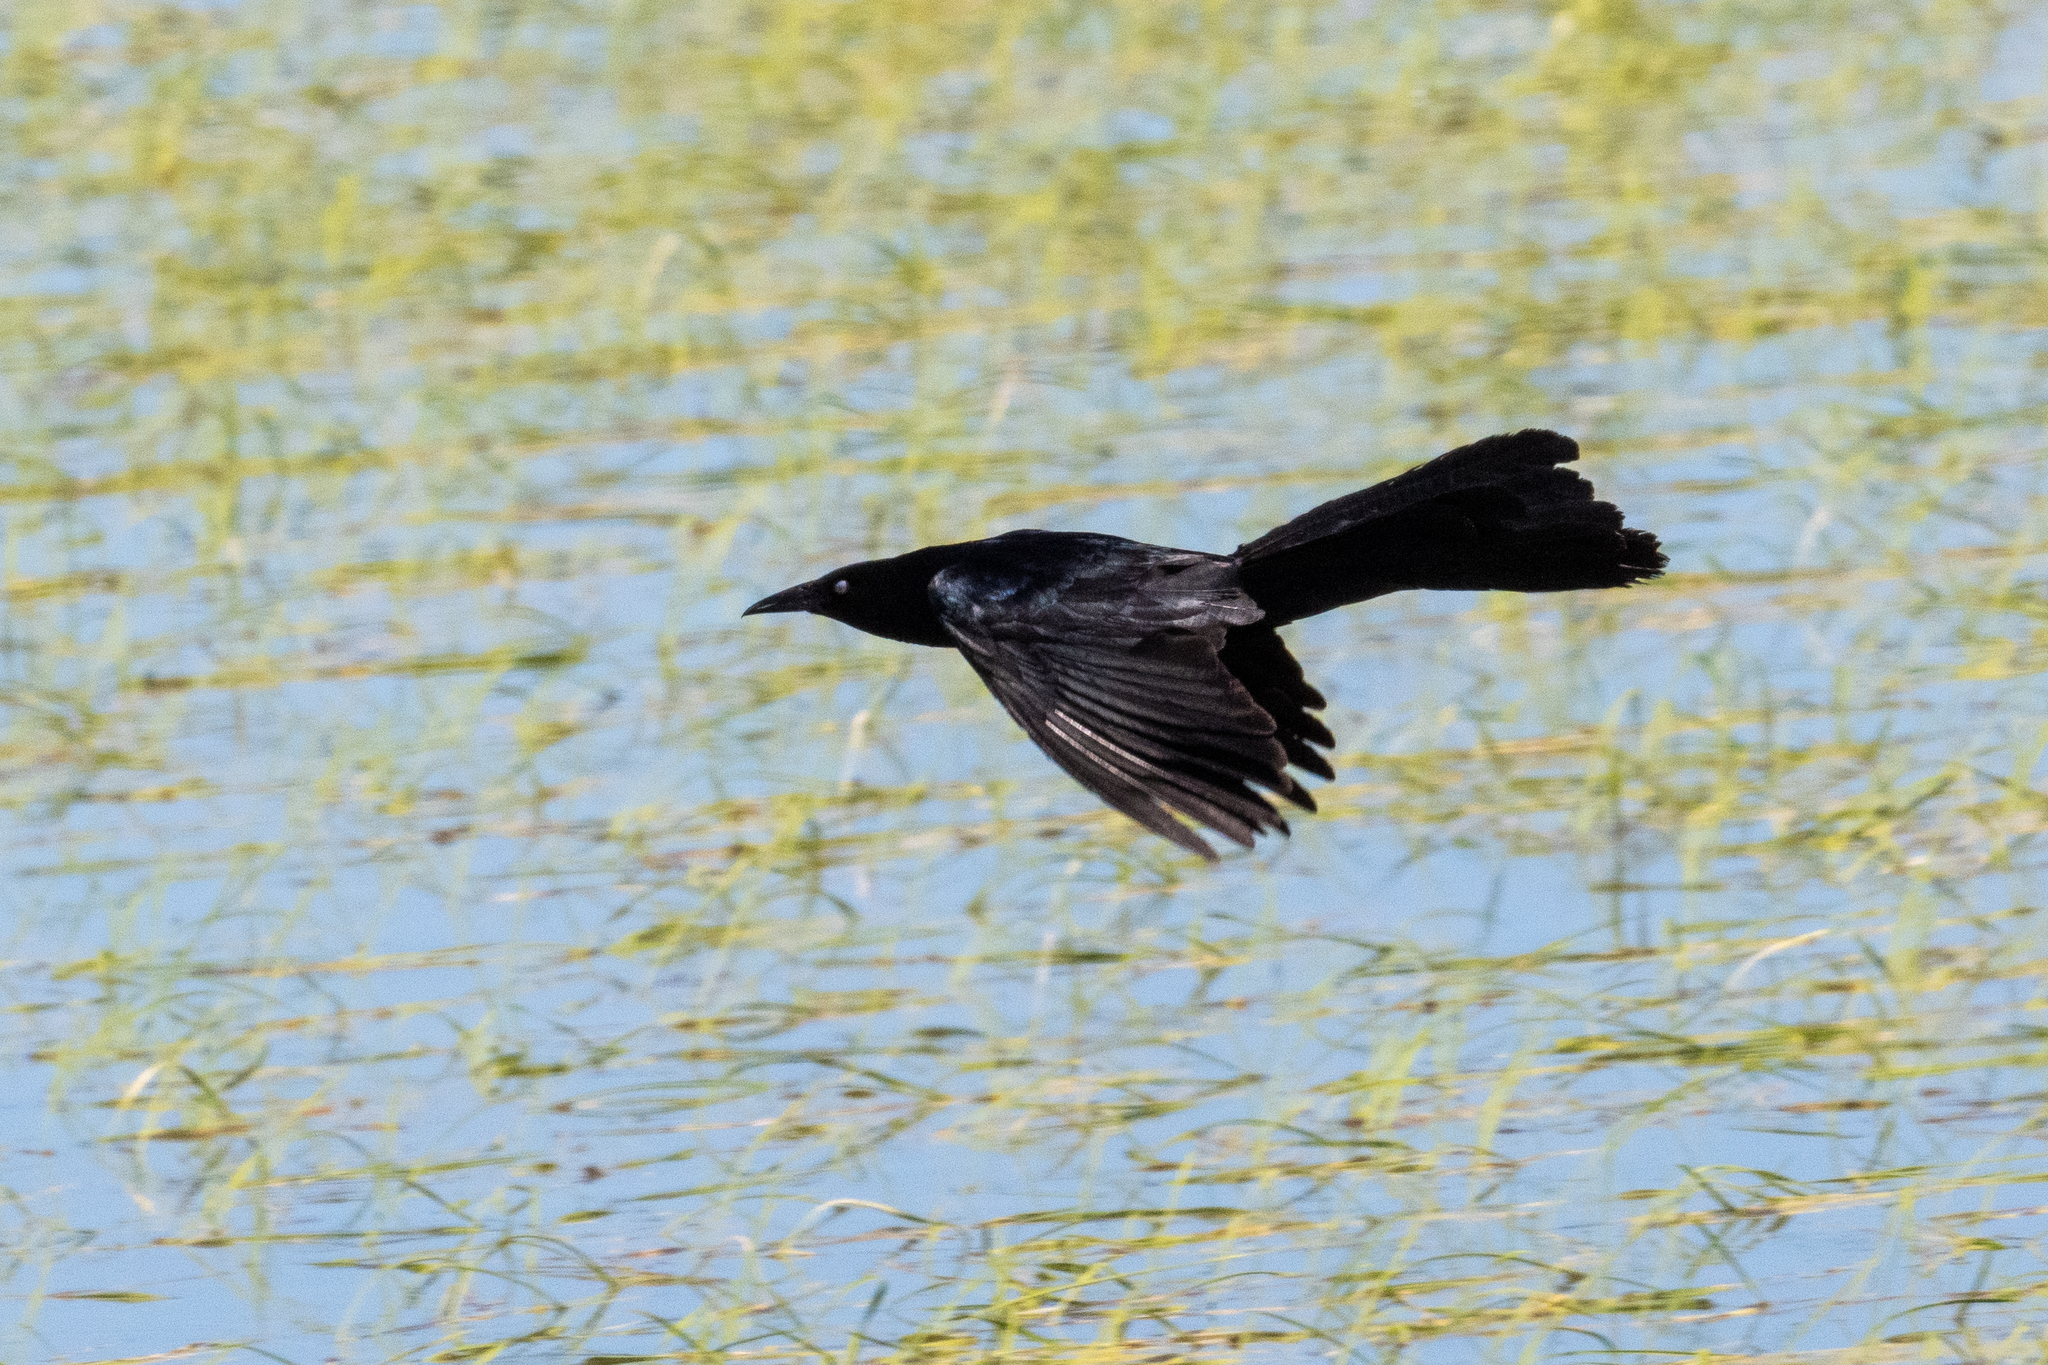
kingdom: Animalia
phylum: Chordata
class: Aves
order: Passeriformes
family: Icteridae
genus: Quiscalus
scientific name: Quiscalus mexicanus
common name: Great-tailed grackle
